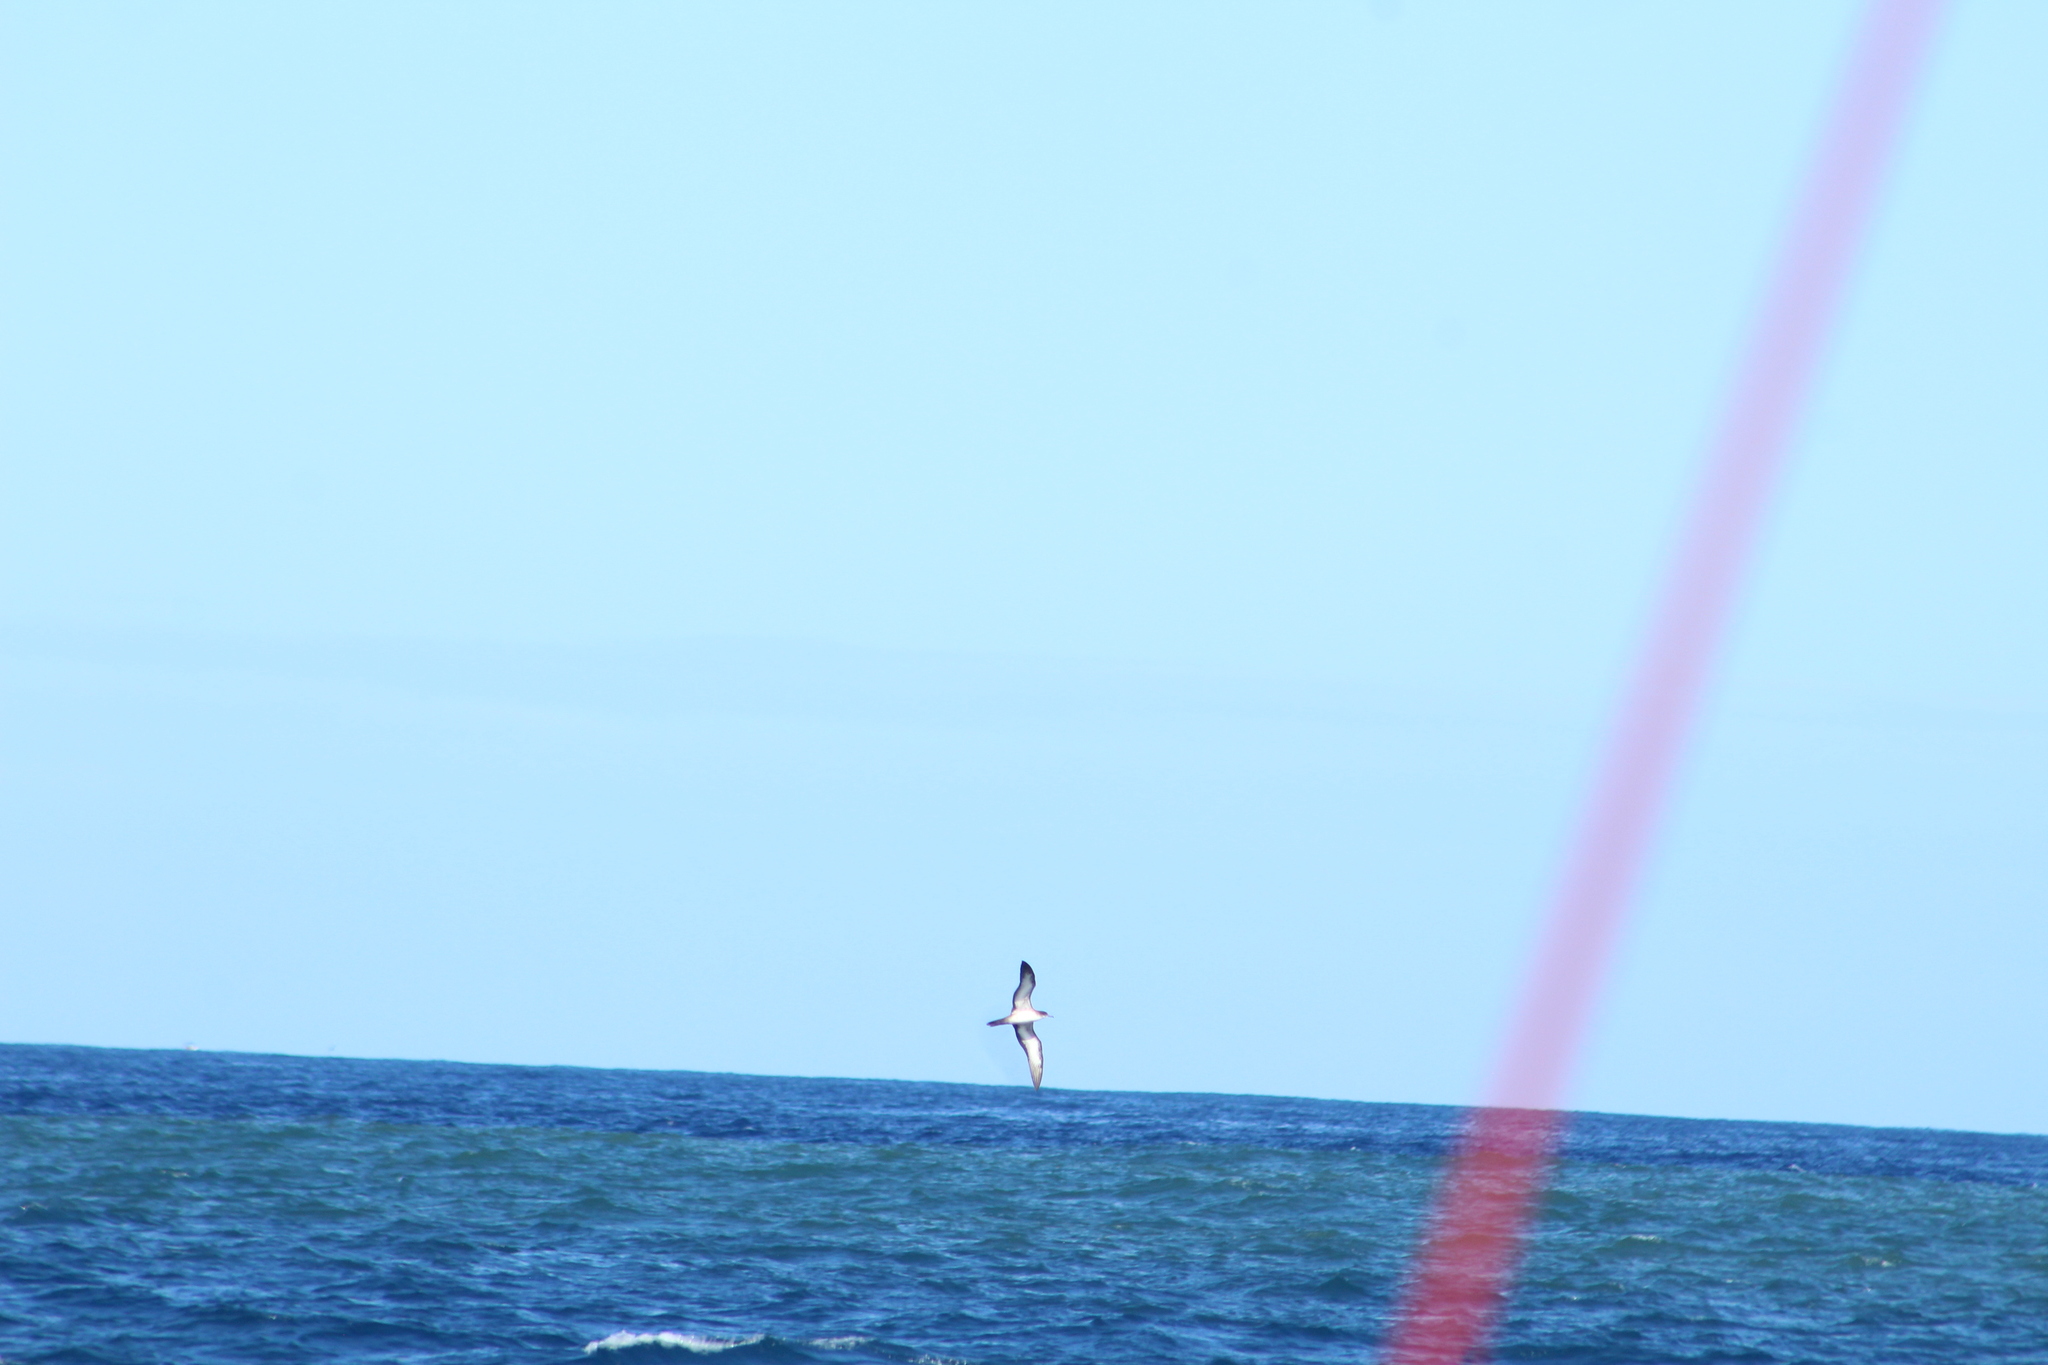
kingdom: Animalia
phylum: Chordata
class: Aves
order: Procellariiformes
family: Procellariidae
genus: Puffinus
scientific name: Puffinus pacificus
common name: Wedge-tailed shearwater
